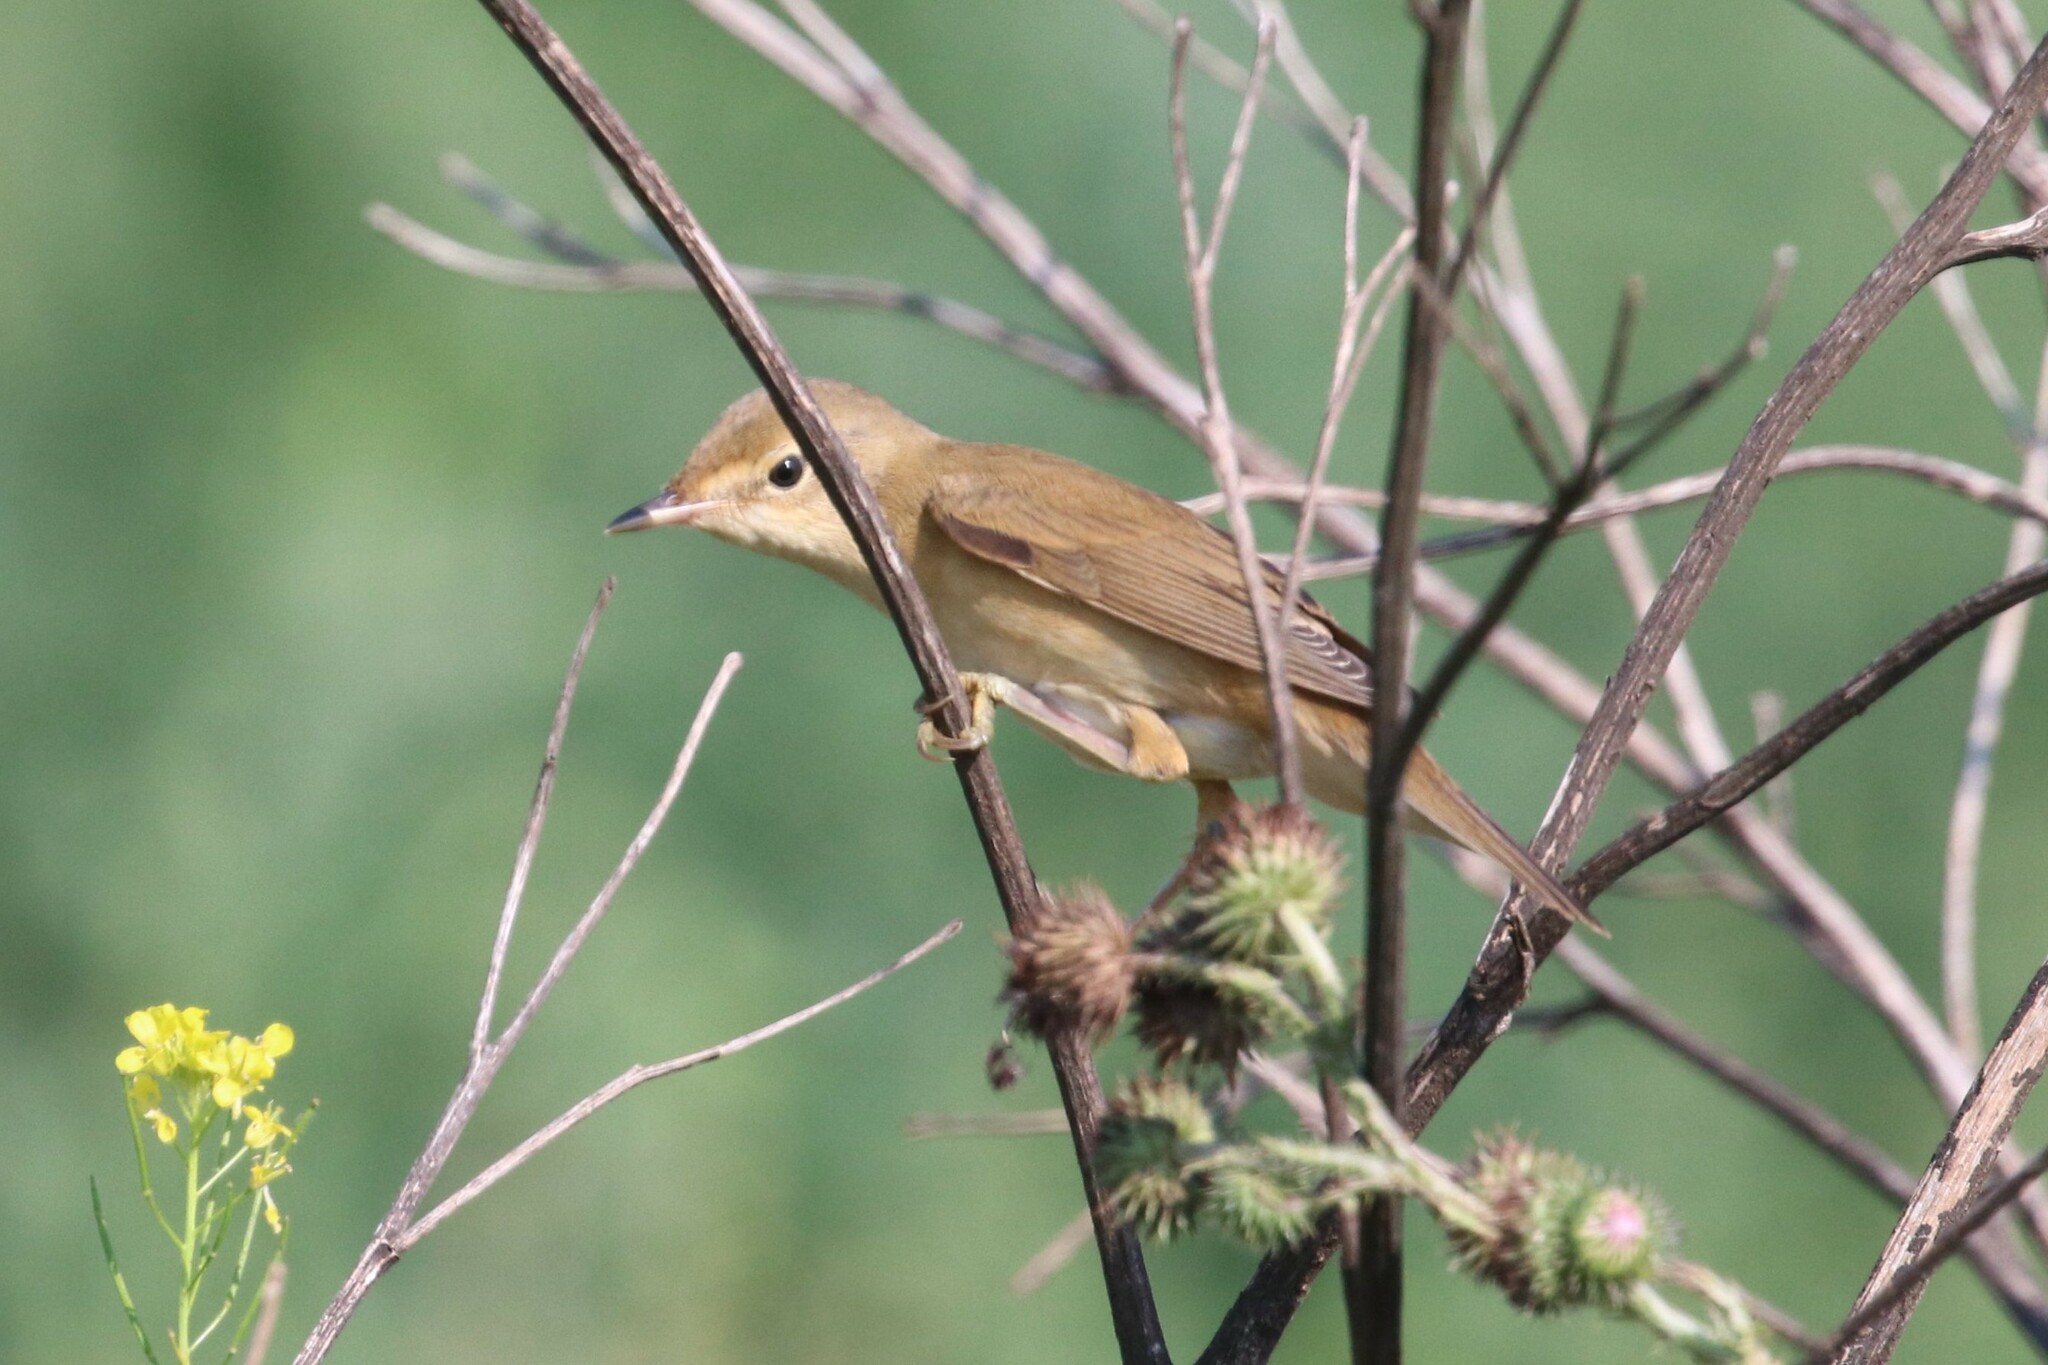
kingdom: Animalia
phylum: Chordata
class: Aves
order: Passeriformes
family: Acrocephalidae
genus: Acrocephalus
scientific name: Acrocephalus palustris
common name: Marsh warbler
